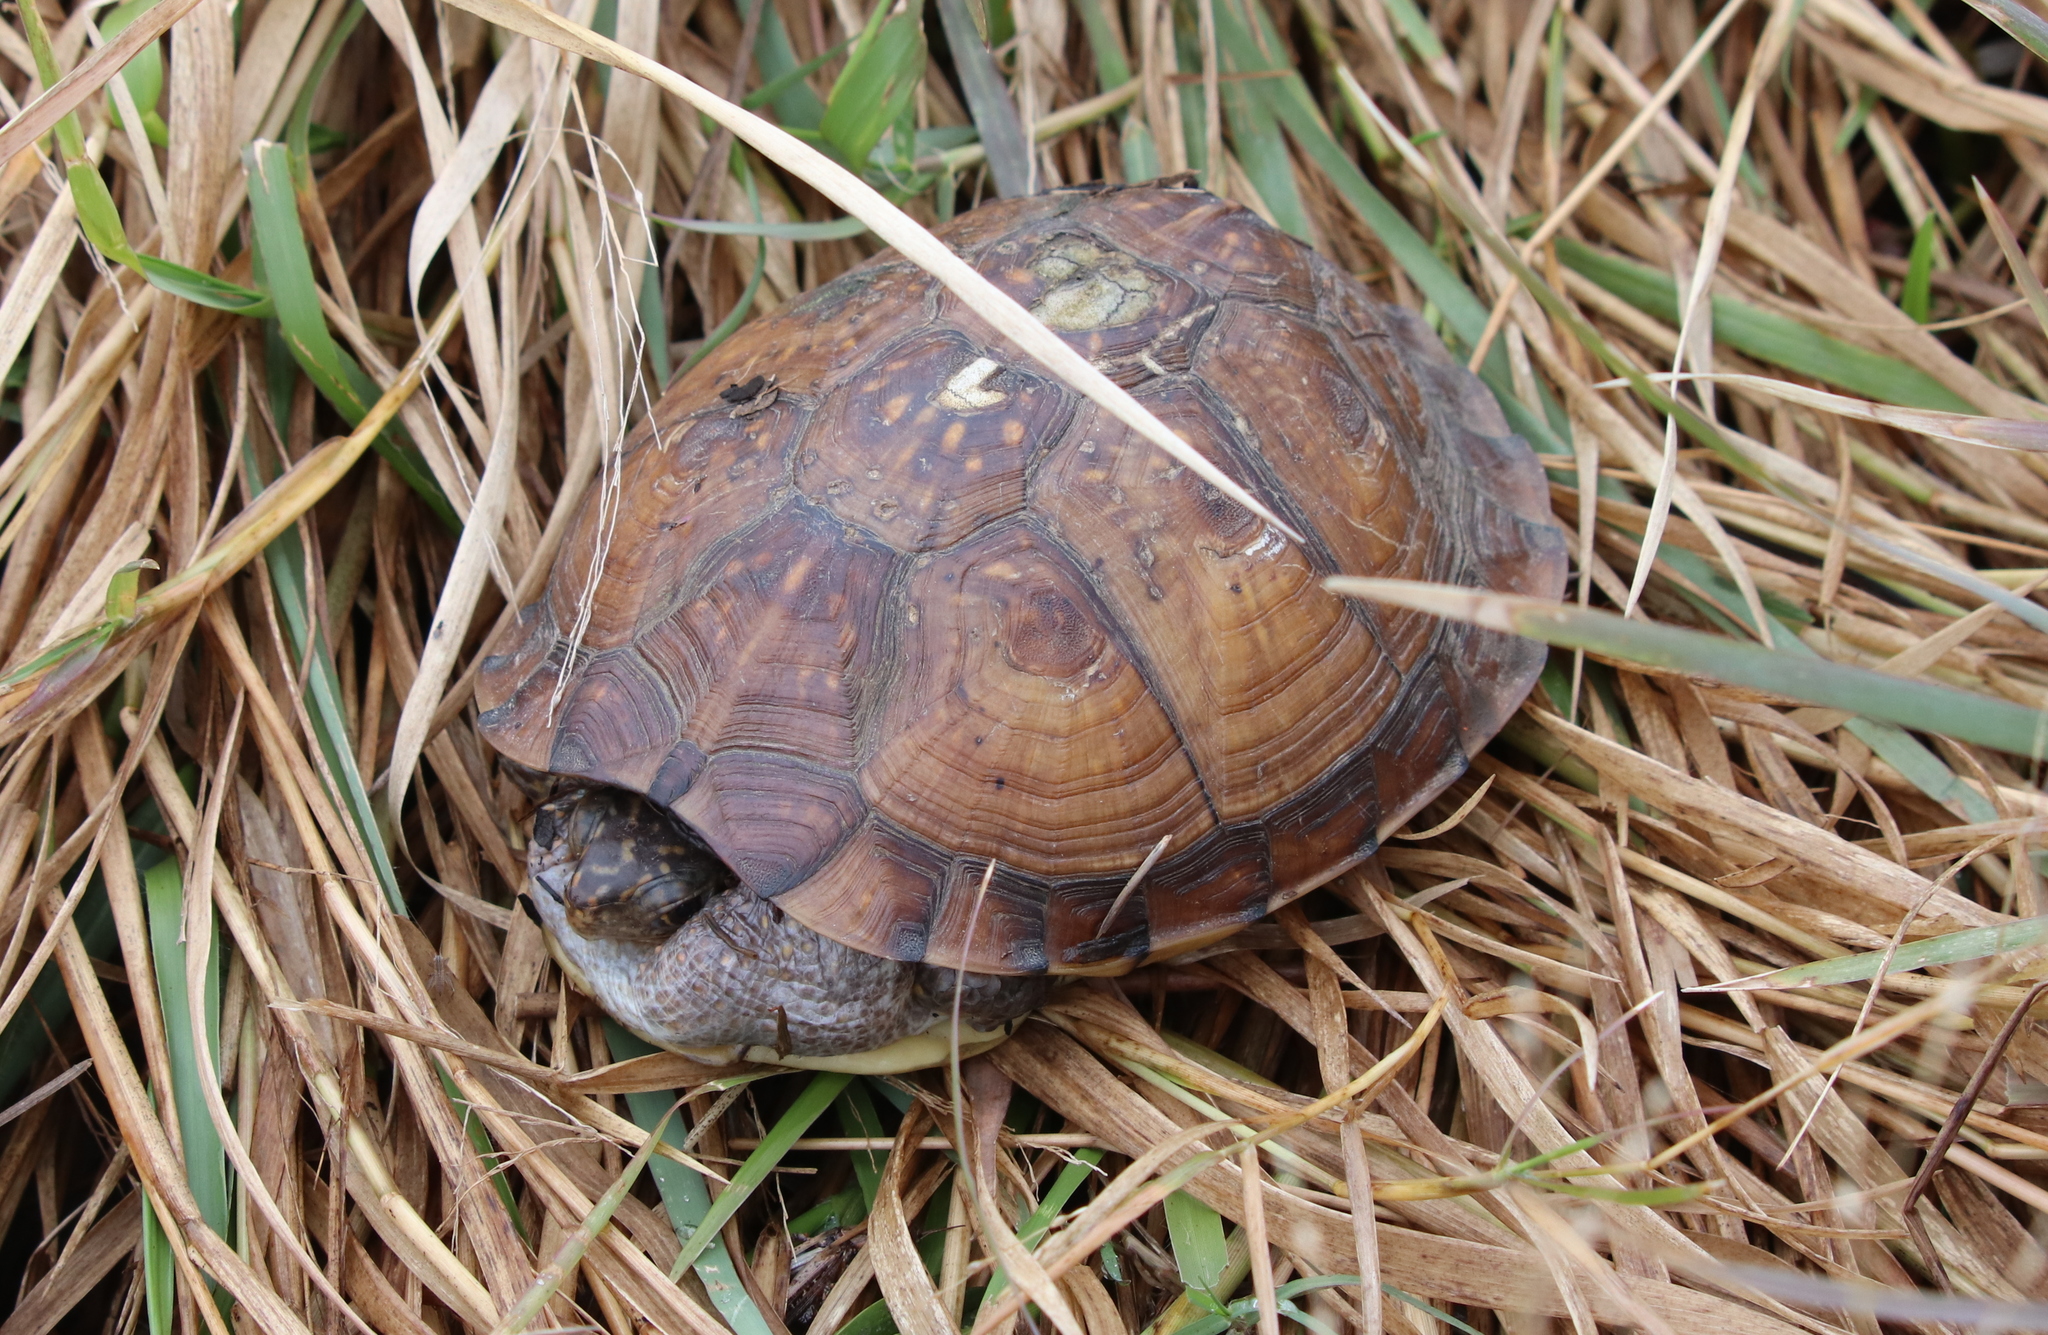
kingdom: Animalia
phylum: Chordata
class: Testudines
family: Emydidae
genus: Terrapene
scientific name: Terrapene carolina
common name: Common box turtle
